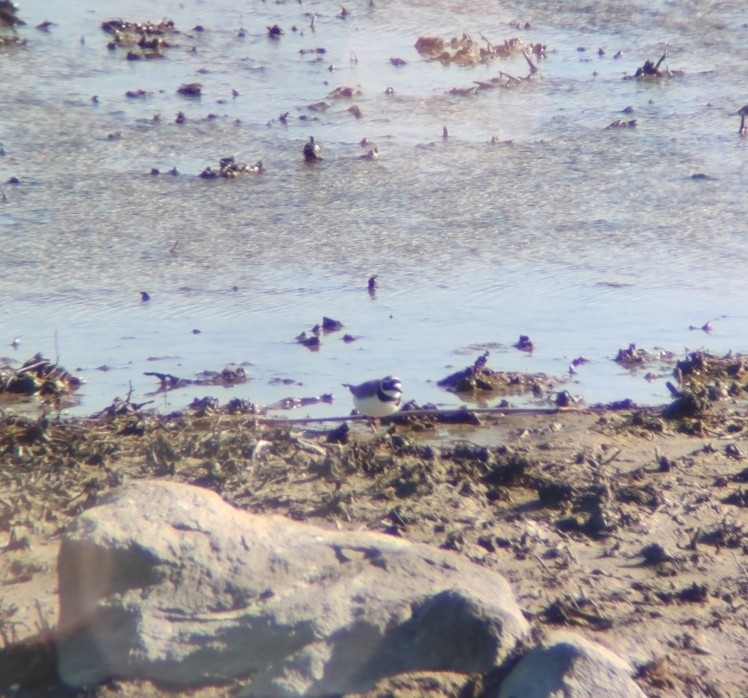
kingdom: Animalia
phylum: Chordata
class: Aves
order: Charadriiformes
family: Charadriidae
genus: Charadrius
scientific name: Charadrius dubius
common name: Little ringed plover
